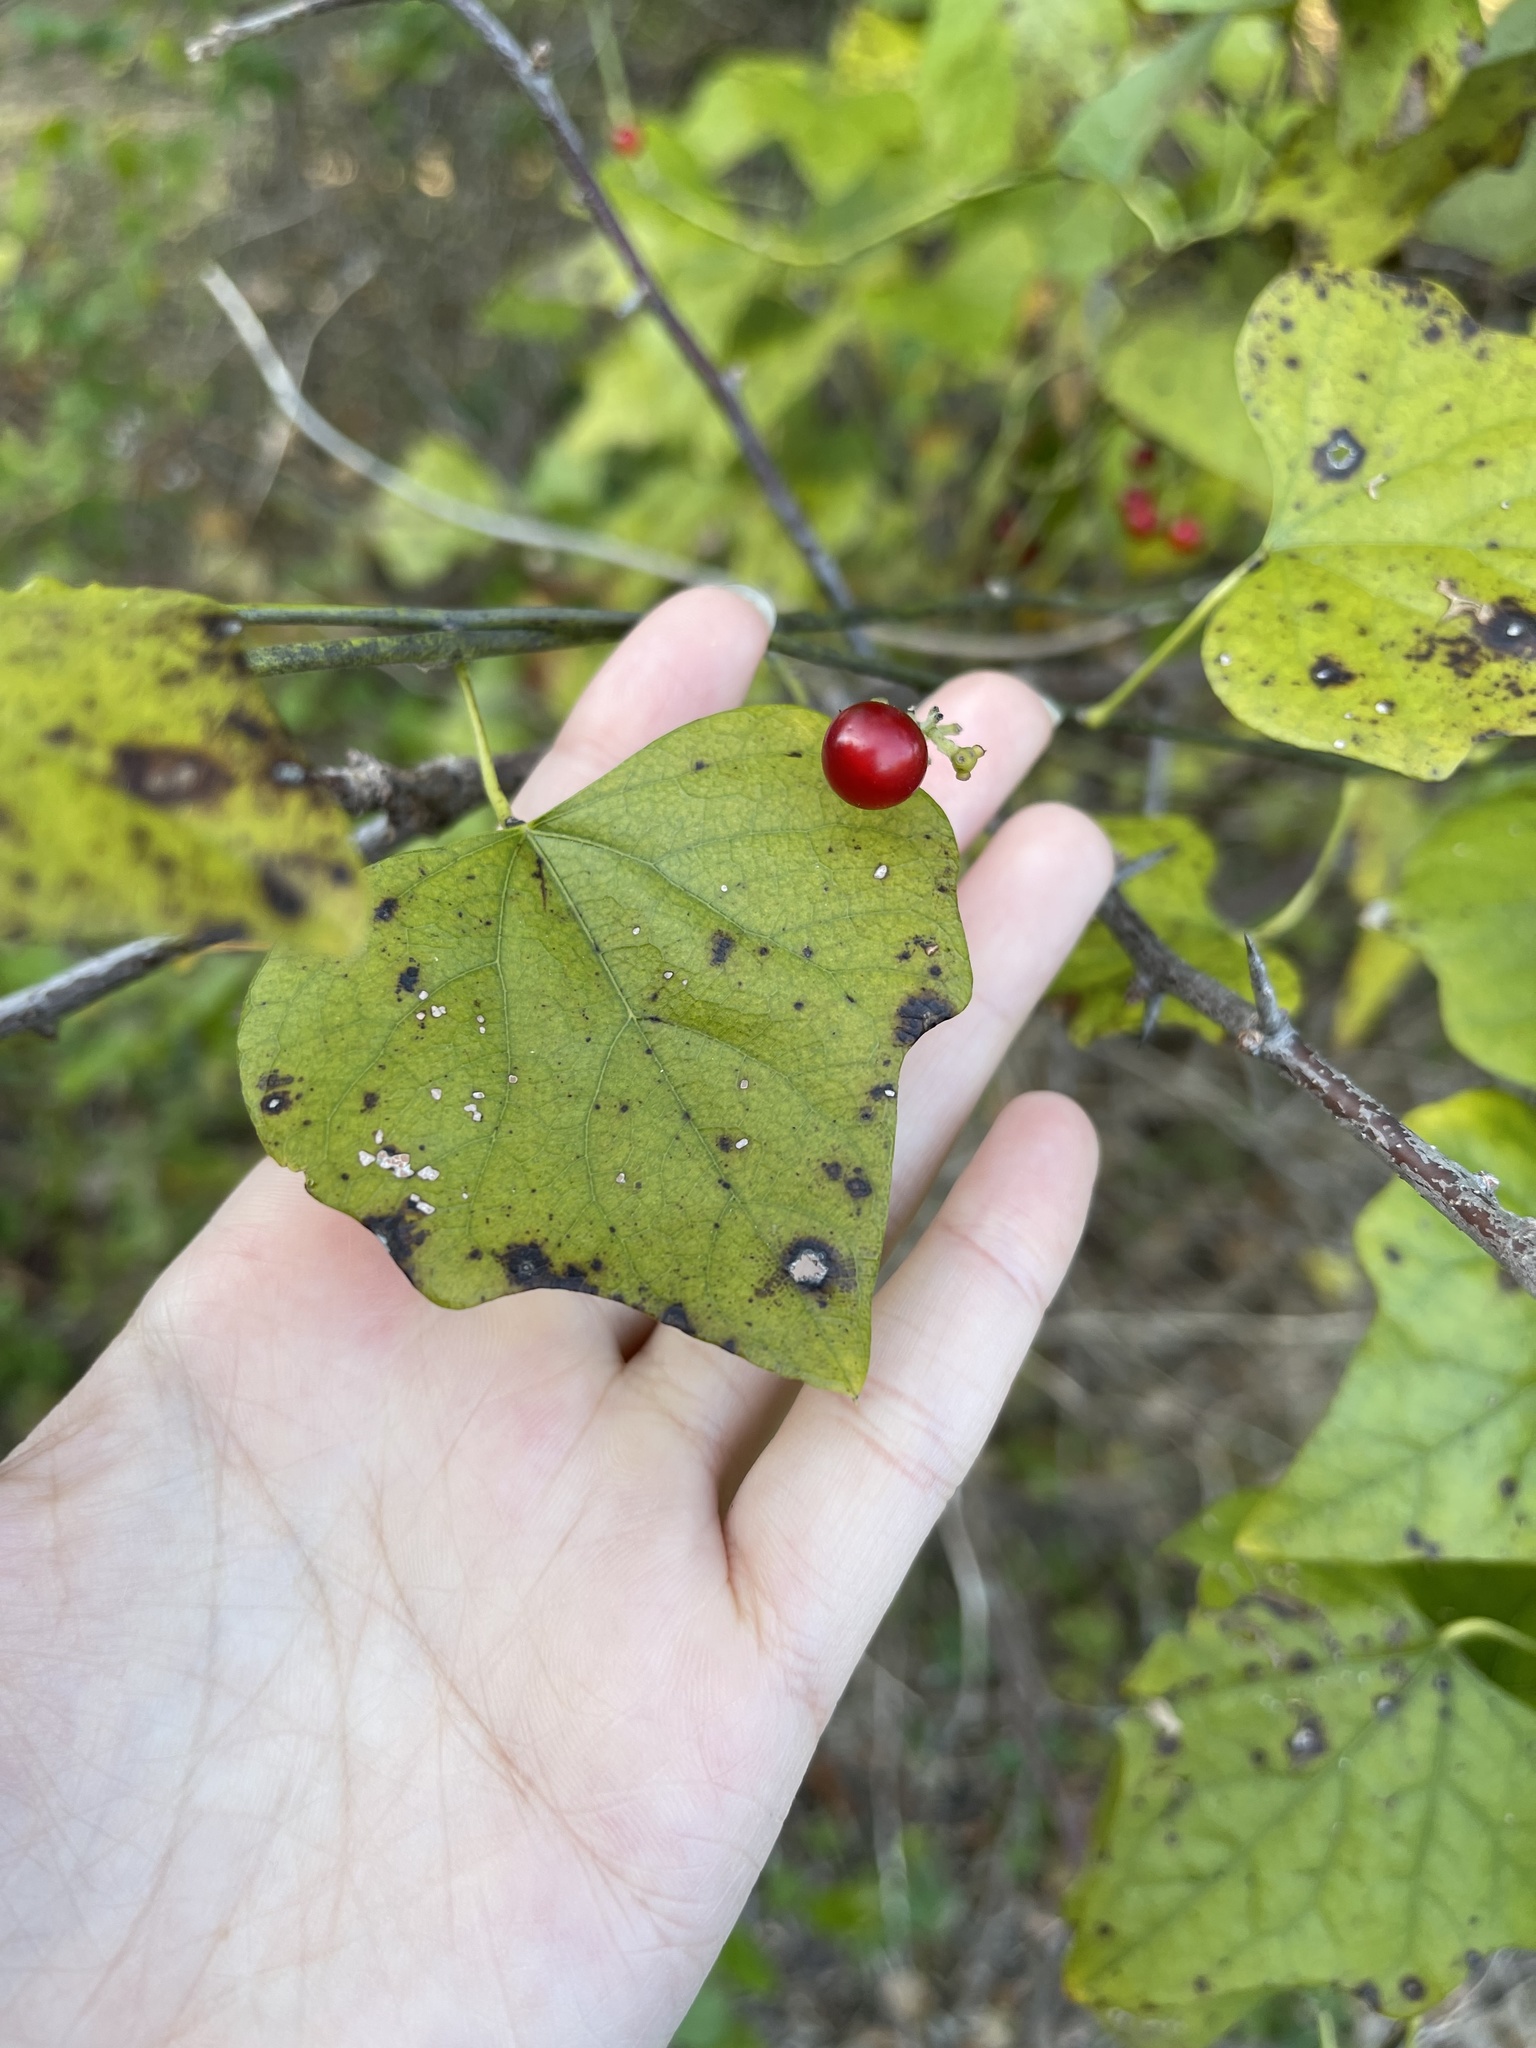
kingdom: Plantae
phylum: Tracheophyta
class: Magnoliopsida
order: Ranunculales
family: Menispermaceae
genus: Cocculus
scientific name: Cocculus carolinus
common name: Carolina moonseed
